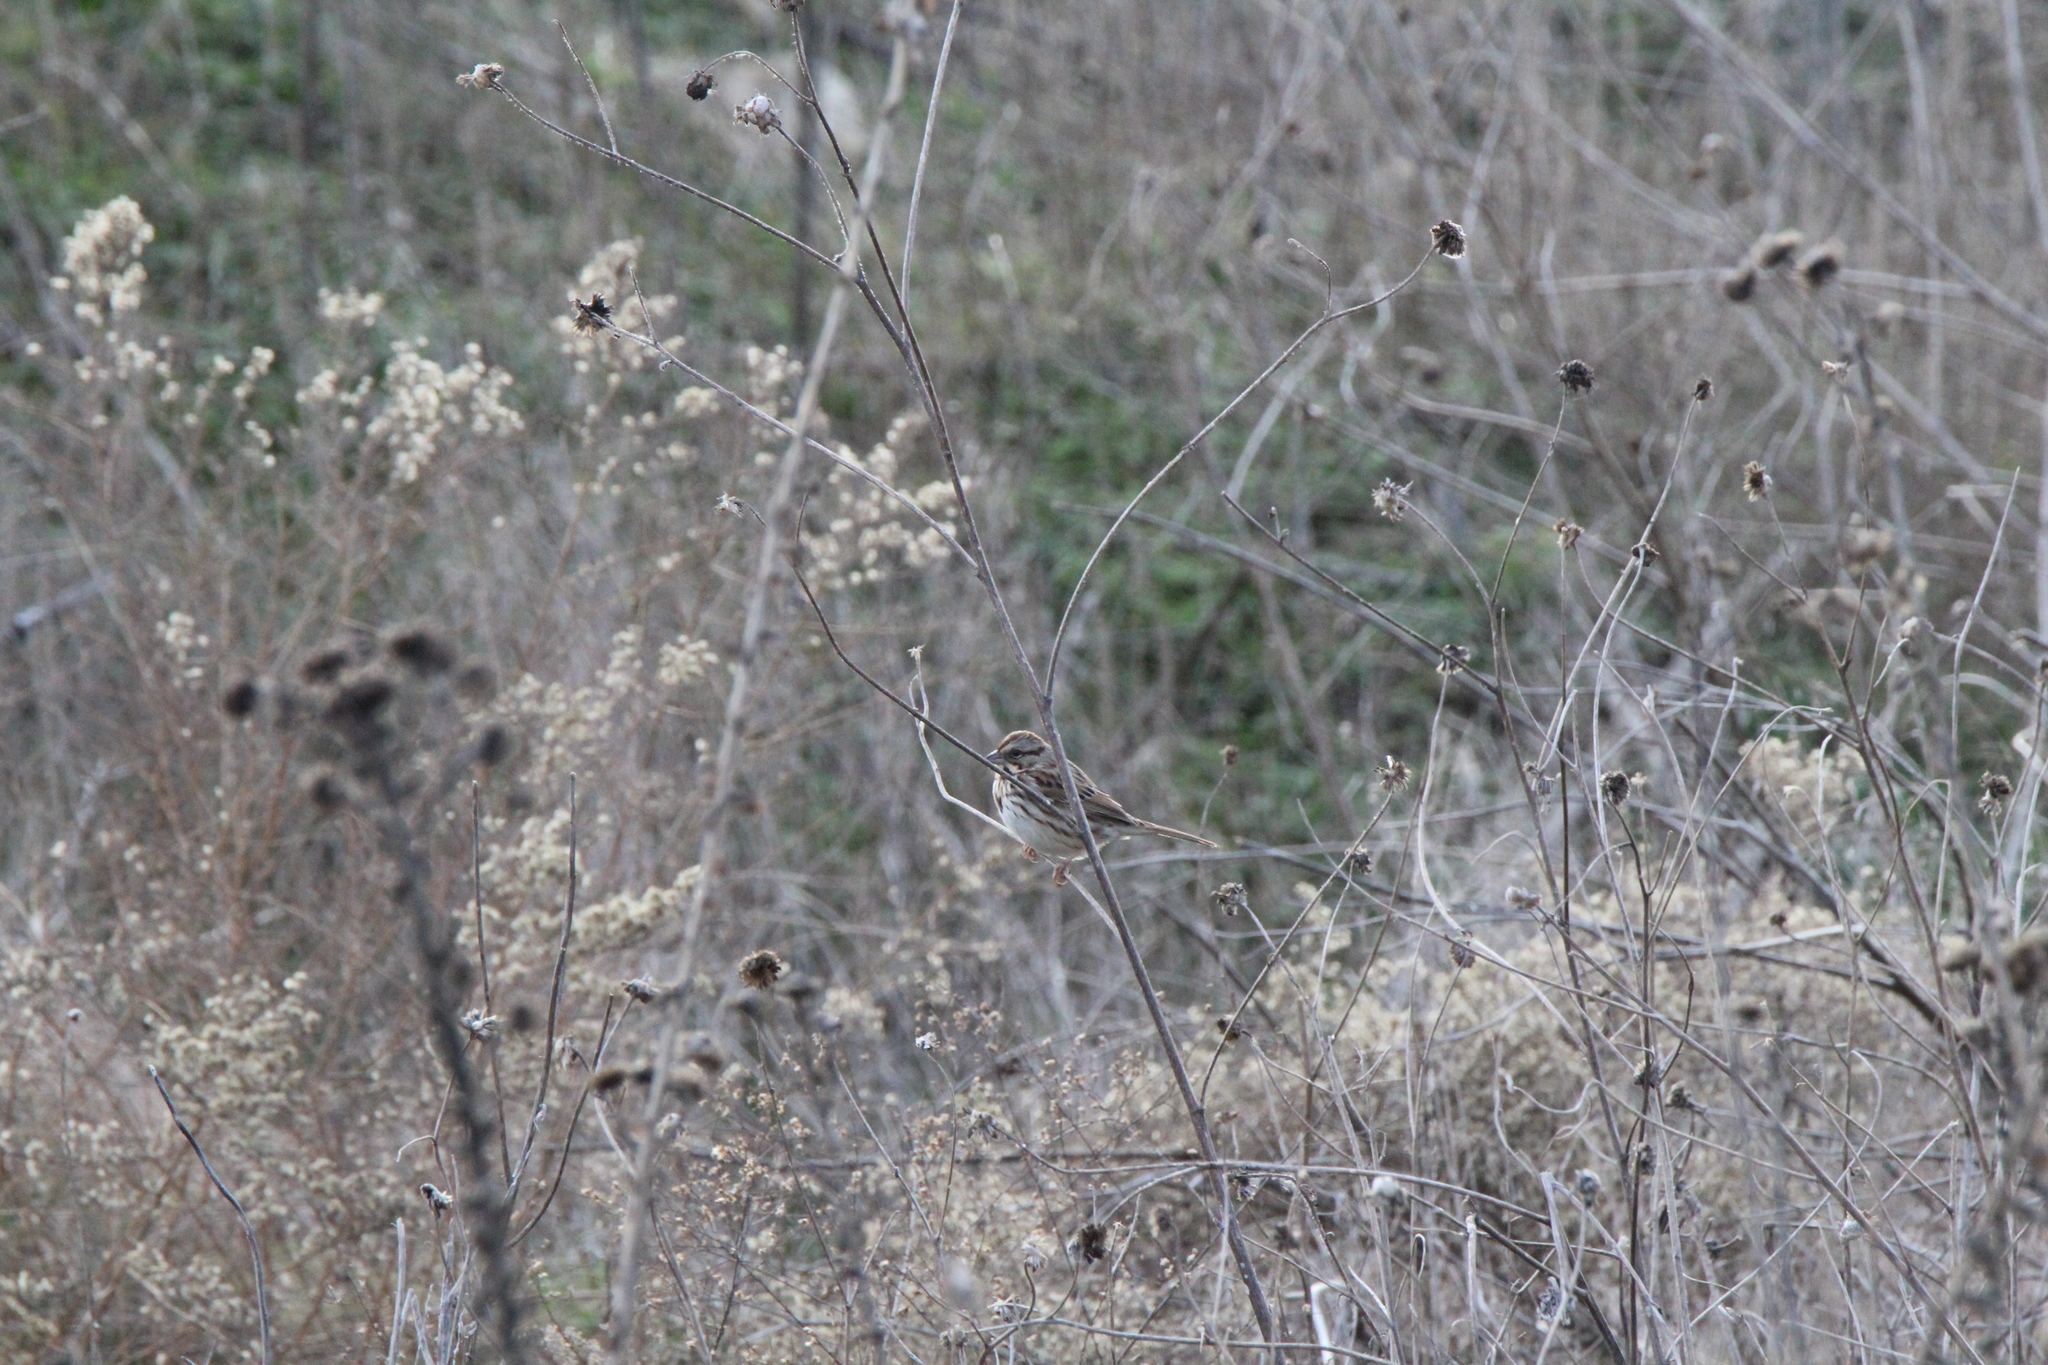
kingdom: Animalia
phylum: Chordata
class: Aves
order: Passeriformes
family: Passerellidae
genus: Melospiza
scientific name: Melospiza melodia
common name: Song sparrow
